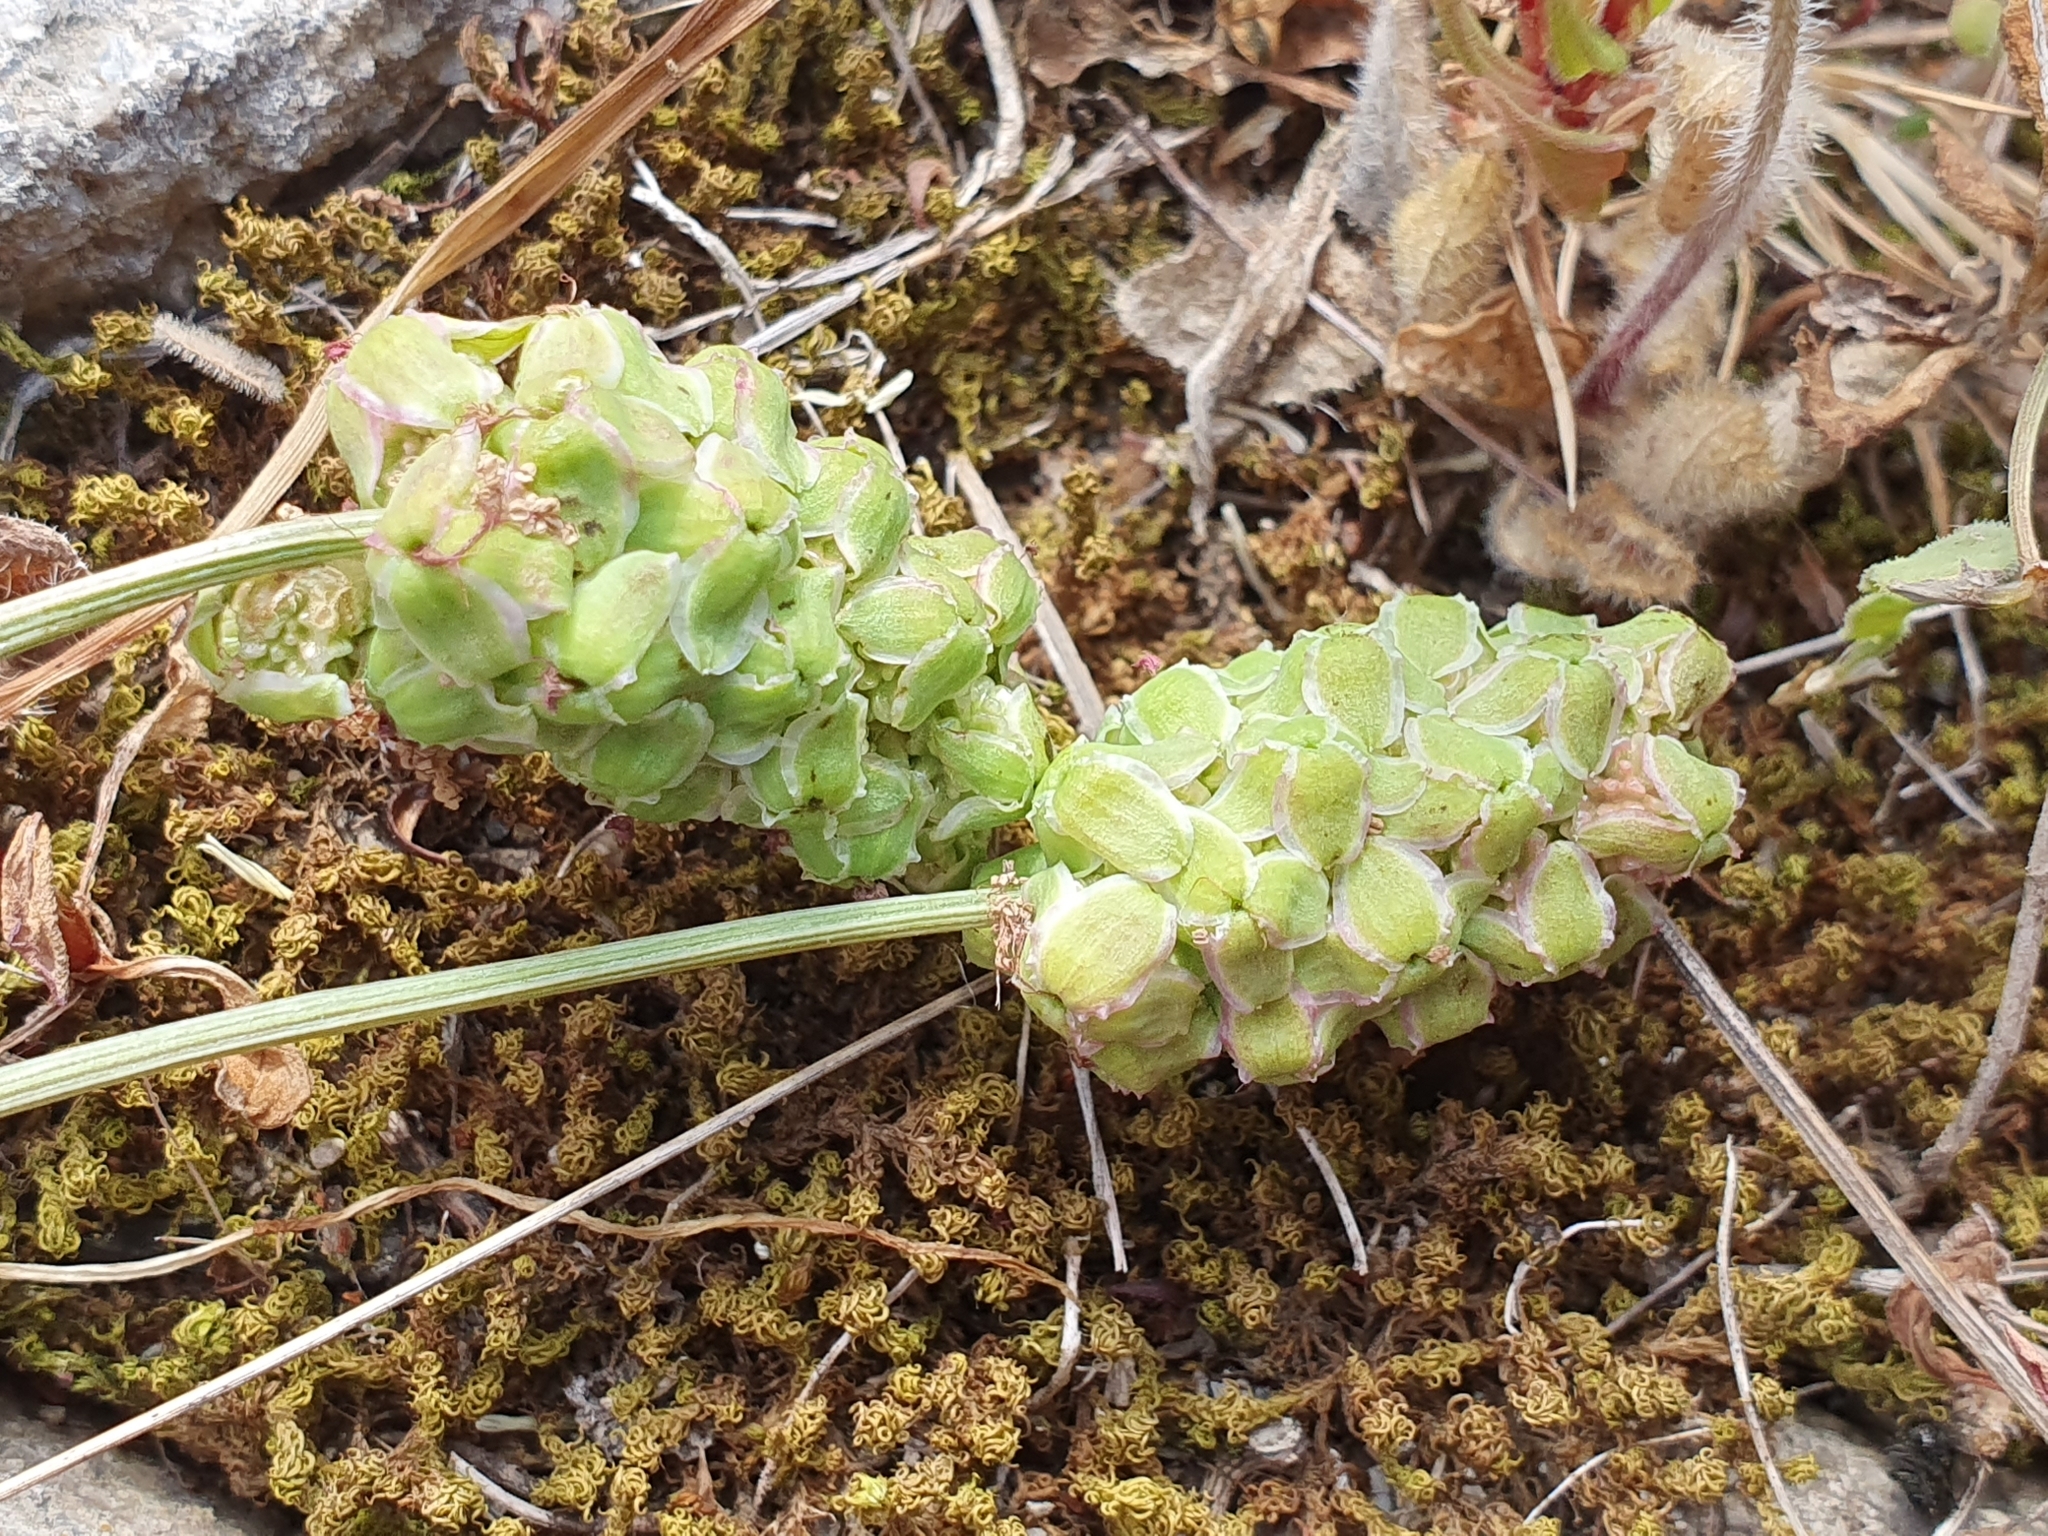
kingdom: Plantae
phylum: Tracheophyta
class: Magnoliopsida
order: Rosales
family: Rosaceae
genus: Poterium
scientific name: Poterium
